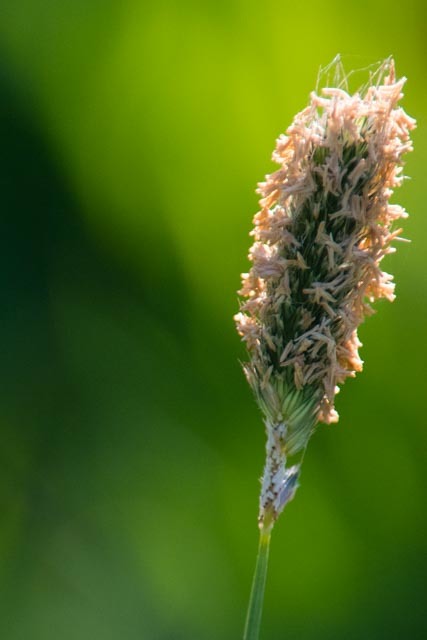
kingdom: Plantae
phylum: Tracheophyta
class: Liliopsida
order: Poales
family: Poaceae
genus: Alopecurus
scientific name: Alopecurus pratensis
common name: Meadow foxtail
